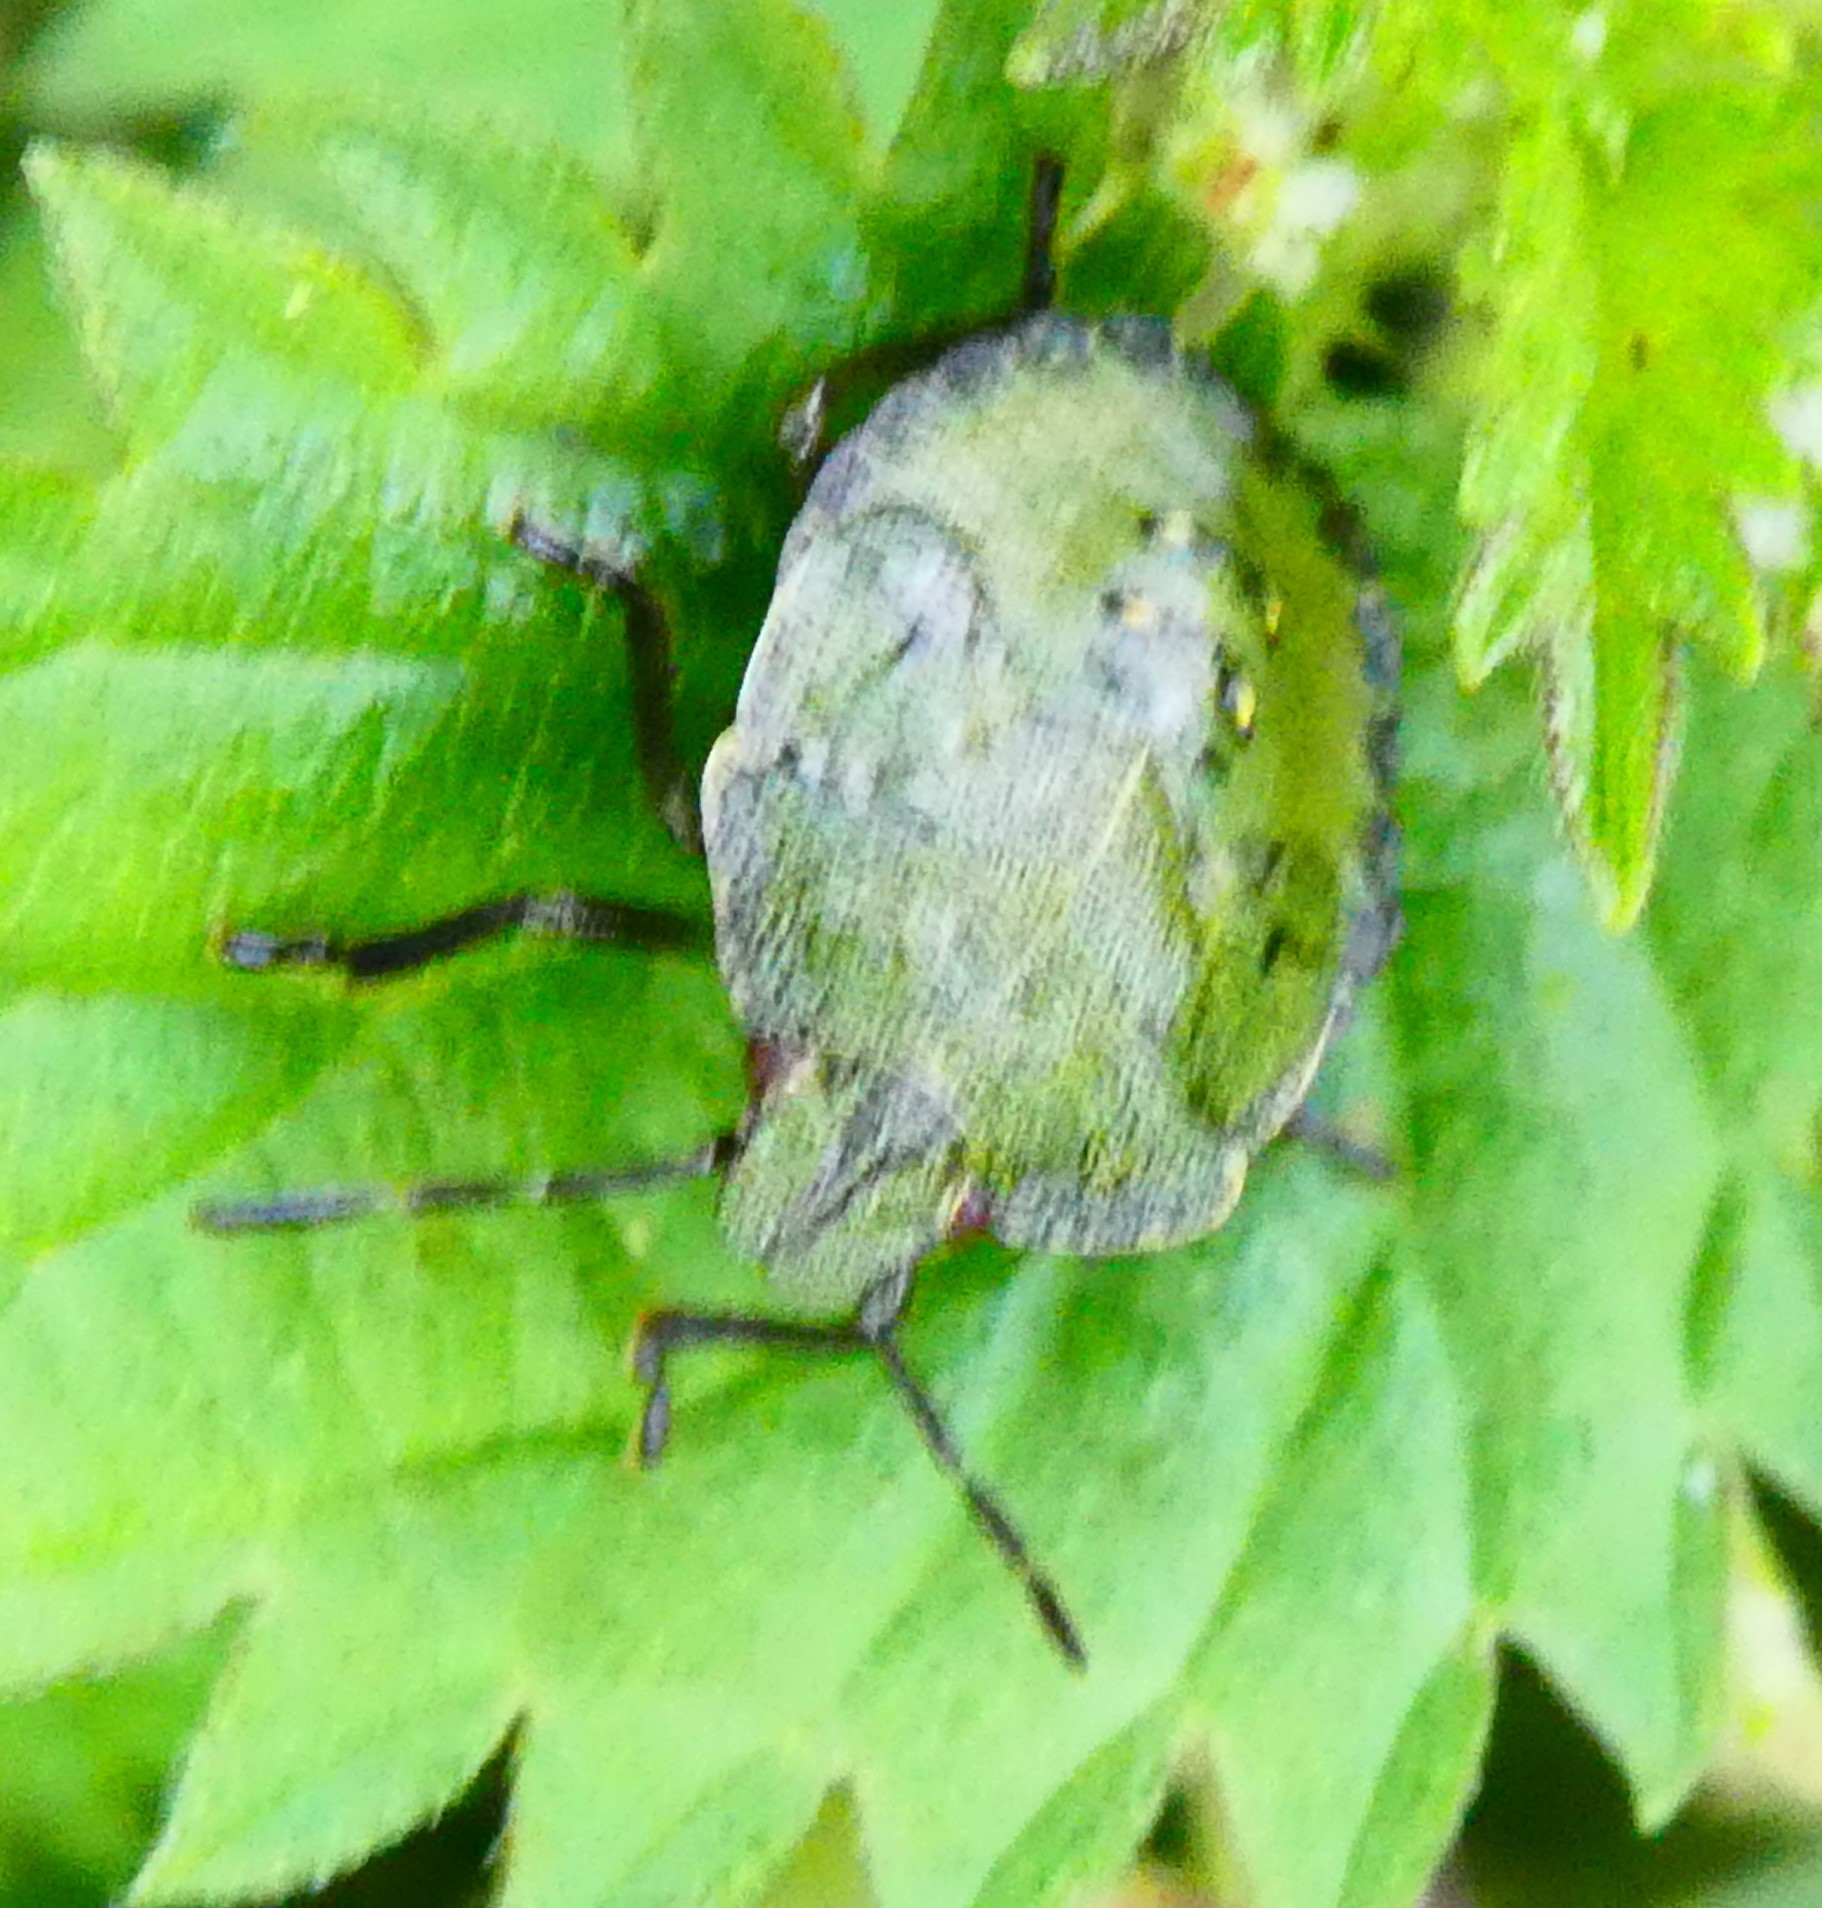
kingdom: Animalia
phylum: Arthropoda
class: Insecta
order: Hemiptera
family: Pentatomidae
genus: Palomena
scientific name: Palomena prasina
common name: Green shieldbug
